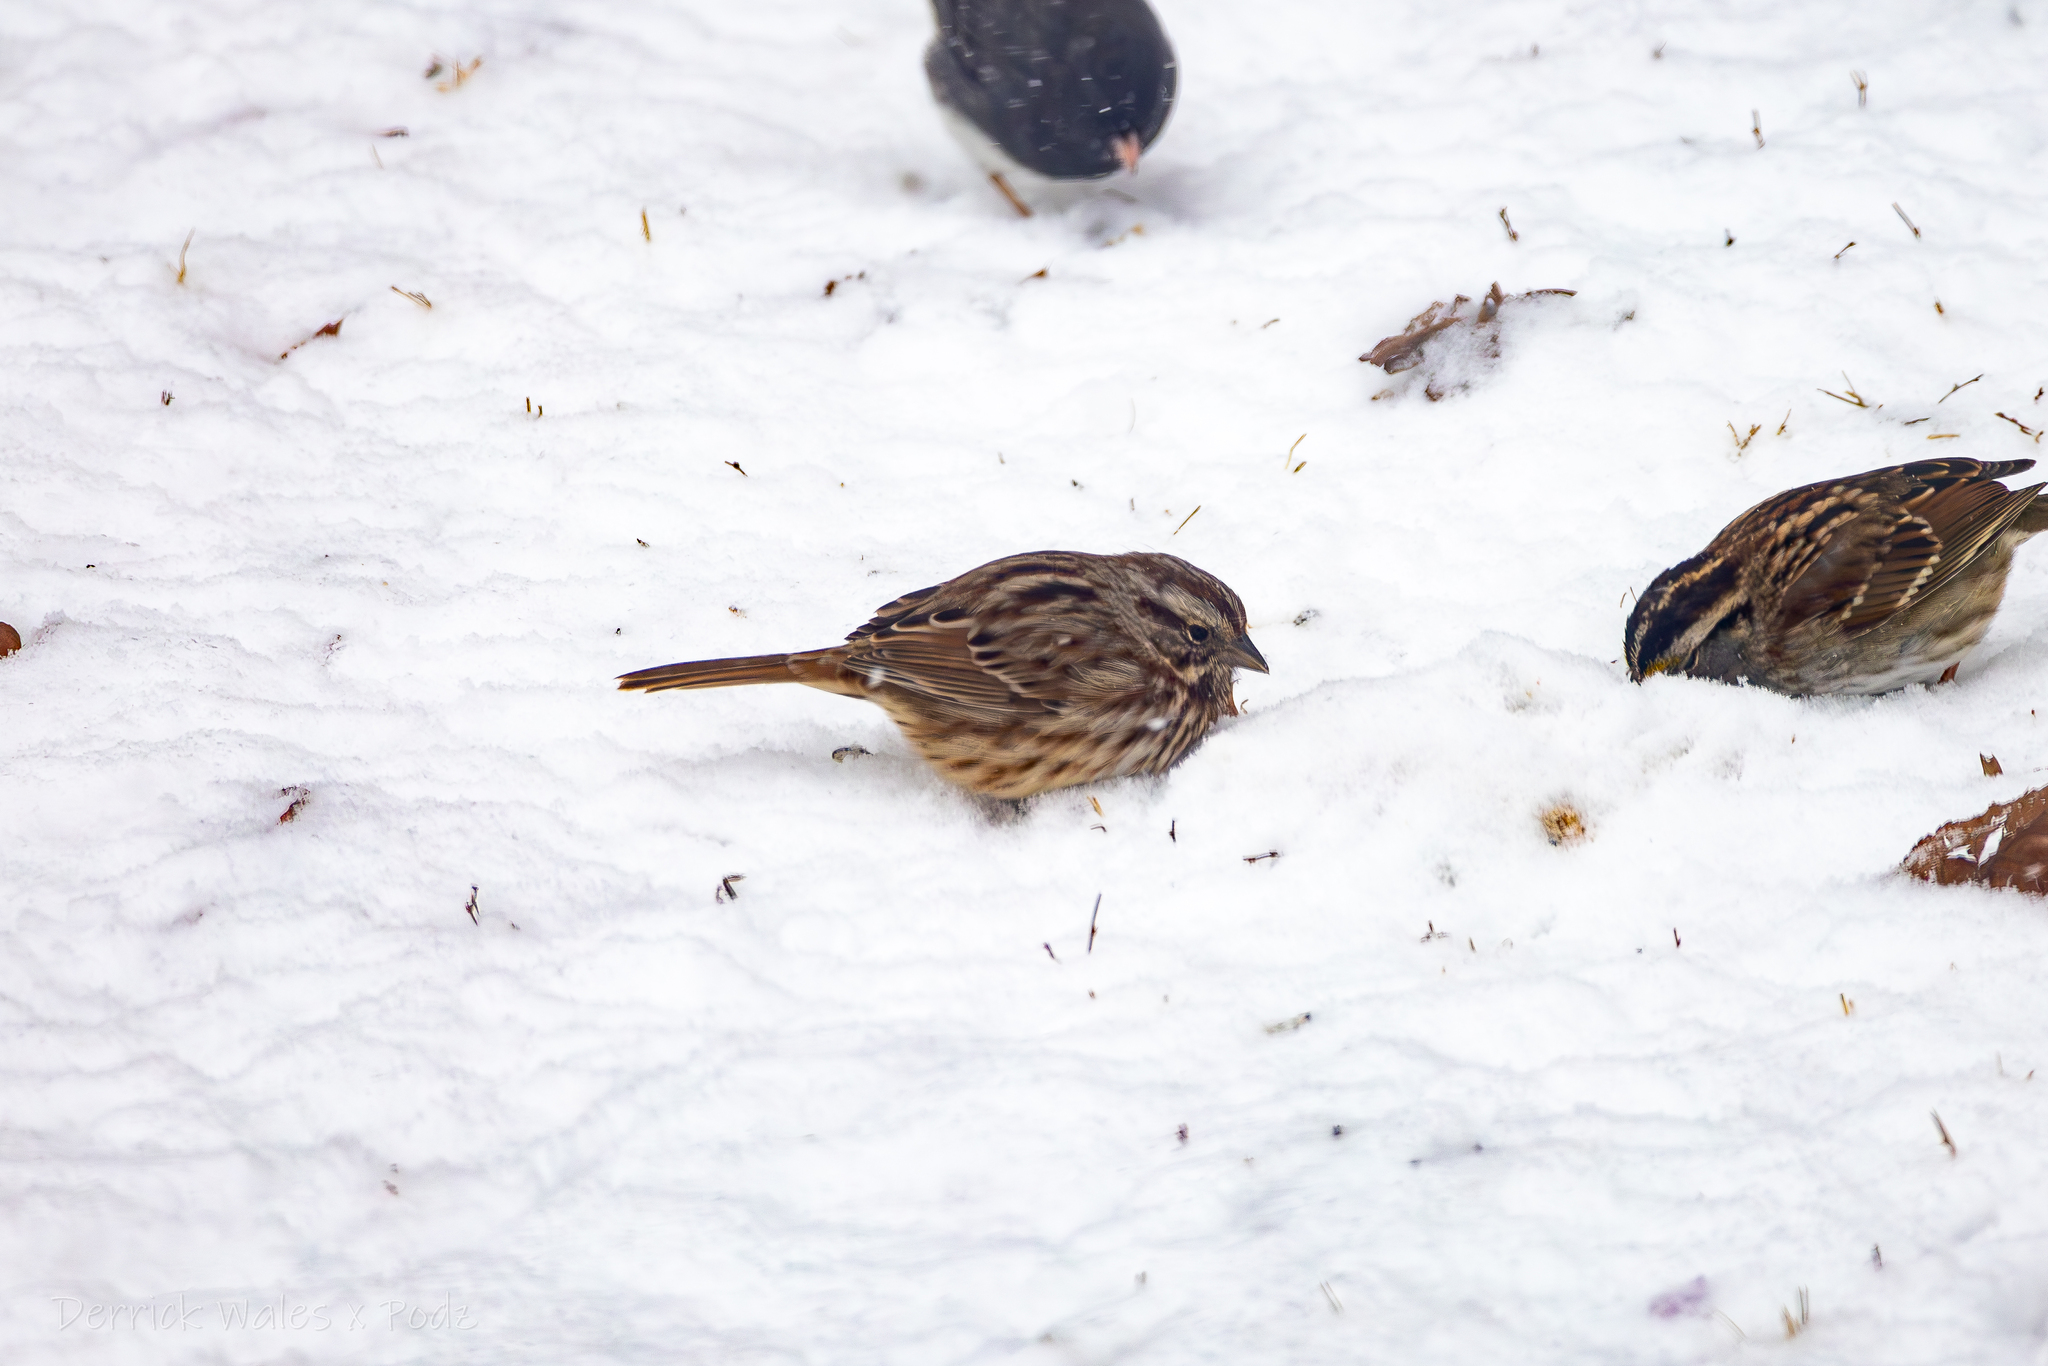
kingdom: Animalia
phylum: Chordata
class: Aves
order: Passeriformes
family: Passerellidae
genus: Melospiza
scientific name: Melospiza melodia
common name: Song sparrow
